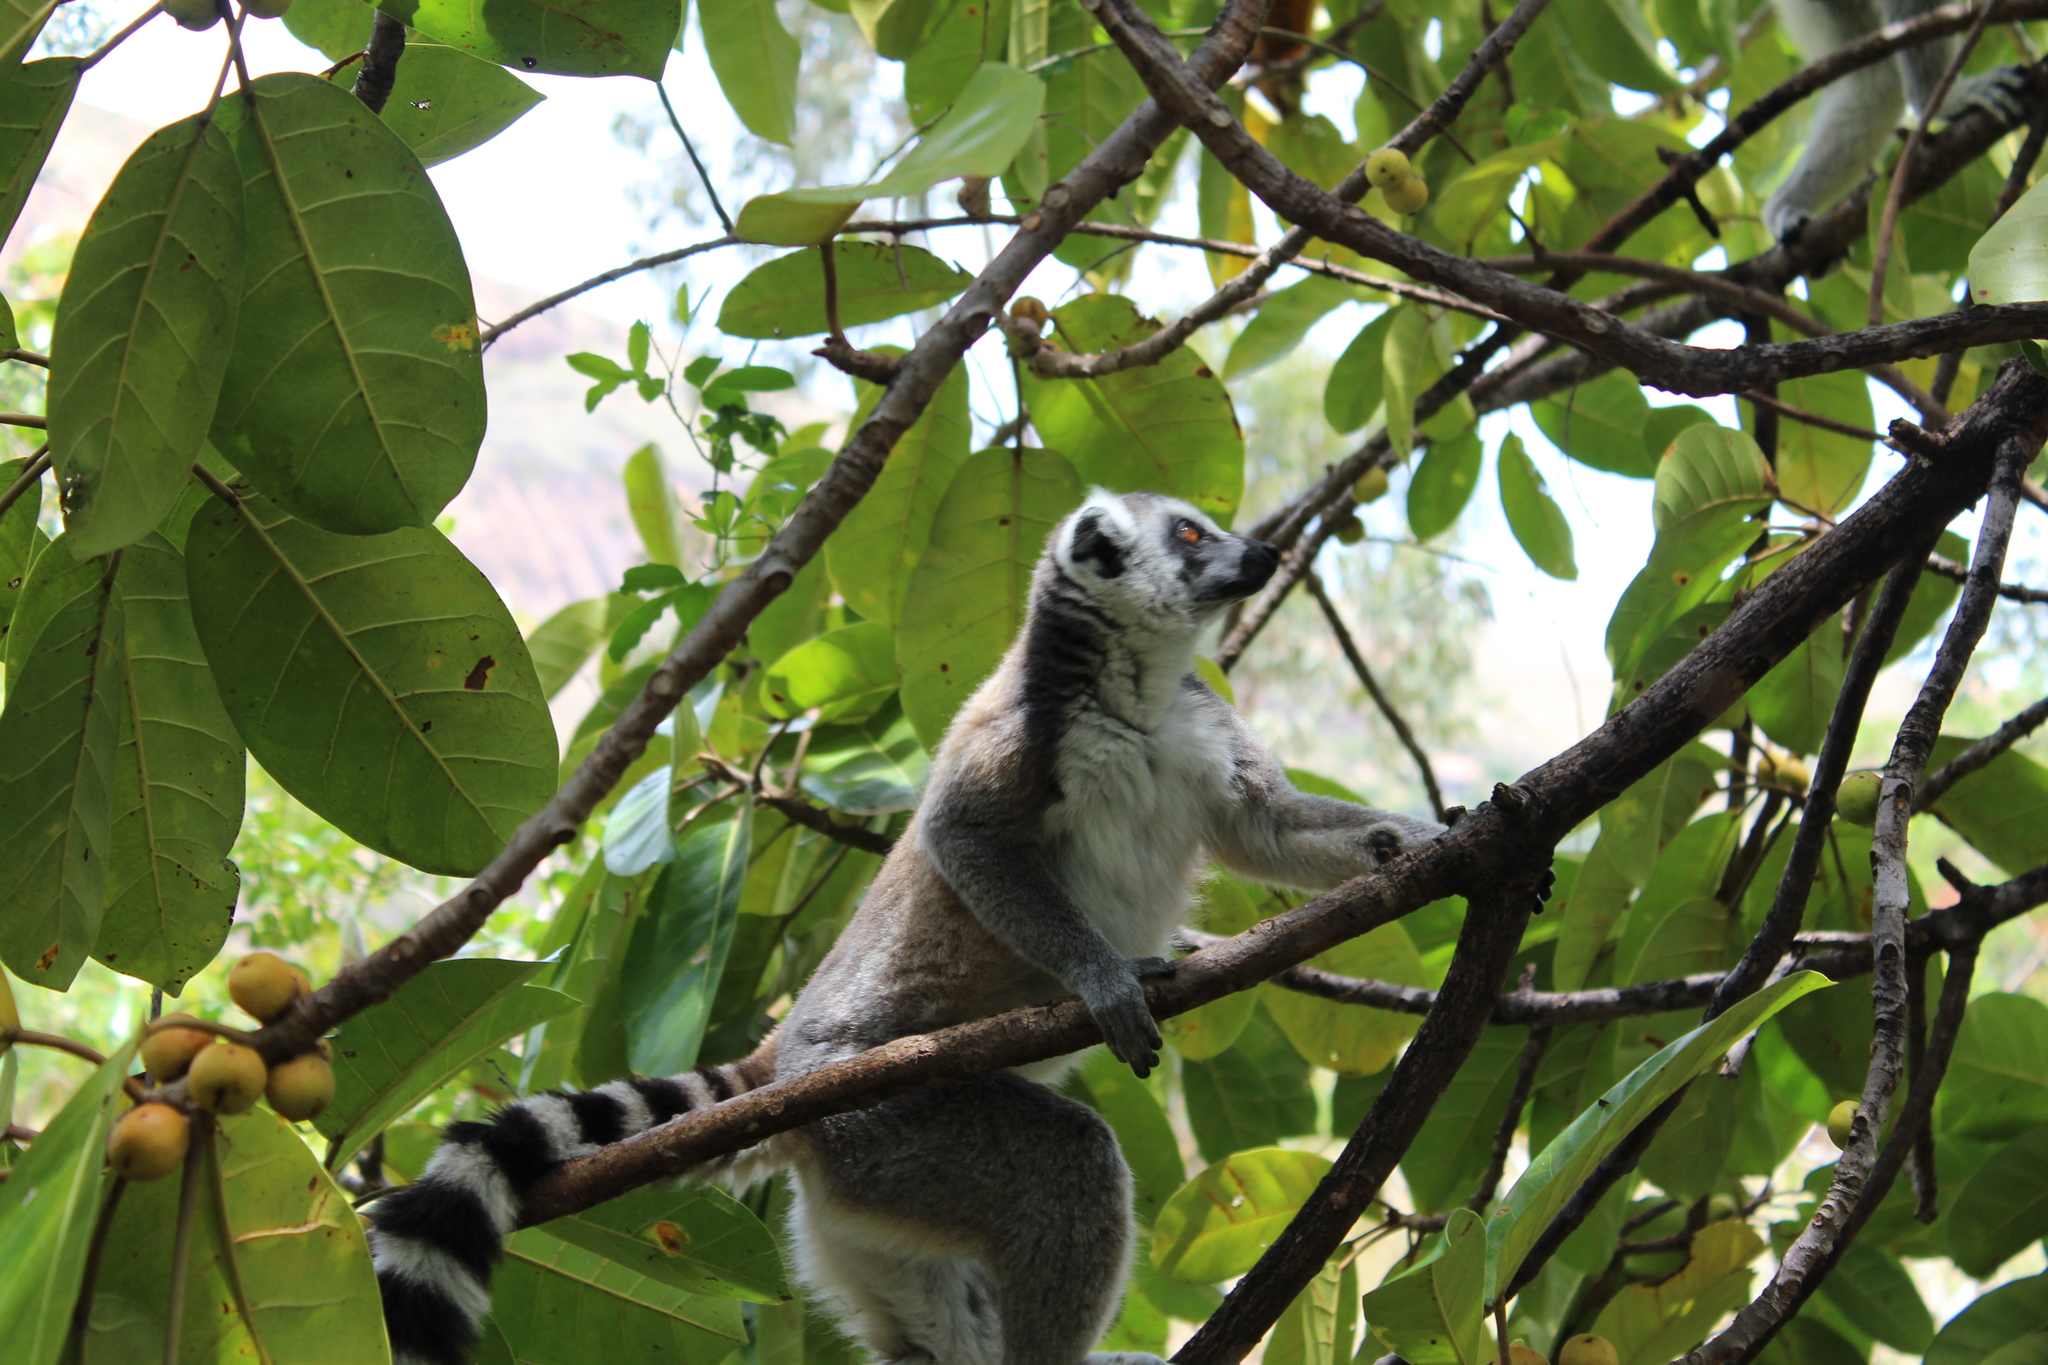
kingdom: Animalia
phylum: Chordata
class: Mammalia
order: Primates
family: Lemuridae
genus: Lemur
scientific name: Lemur catta
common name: Ring-tailed lemur
